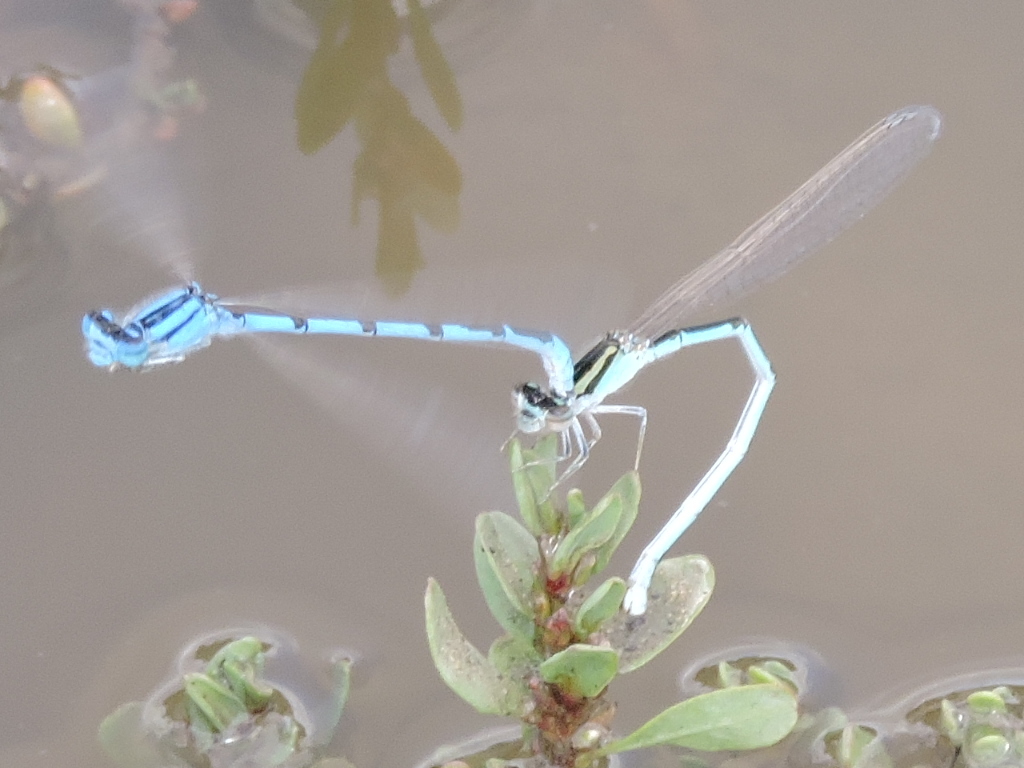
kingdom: Animalia
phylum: Arthropoda
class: Insecta
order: Odonata
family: Coenagrionidae
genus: Enallagma
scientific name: Enallagma civile
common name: Damselfly
